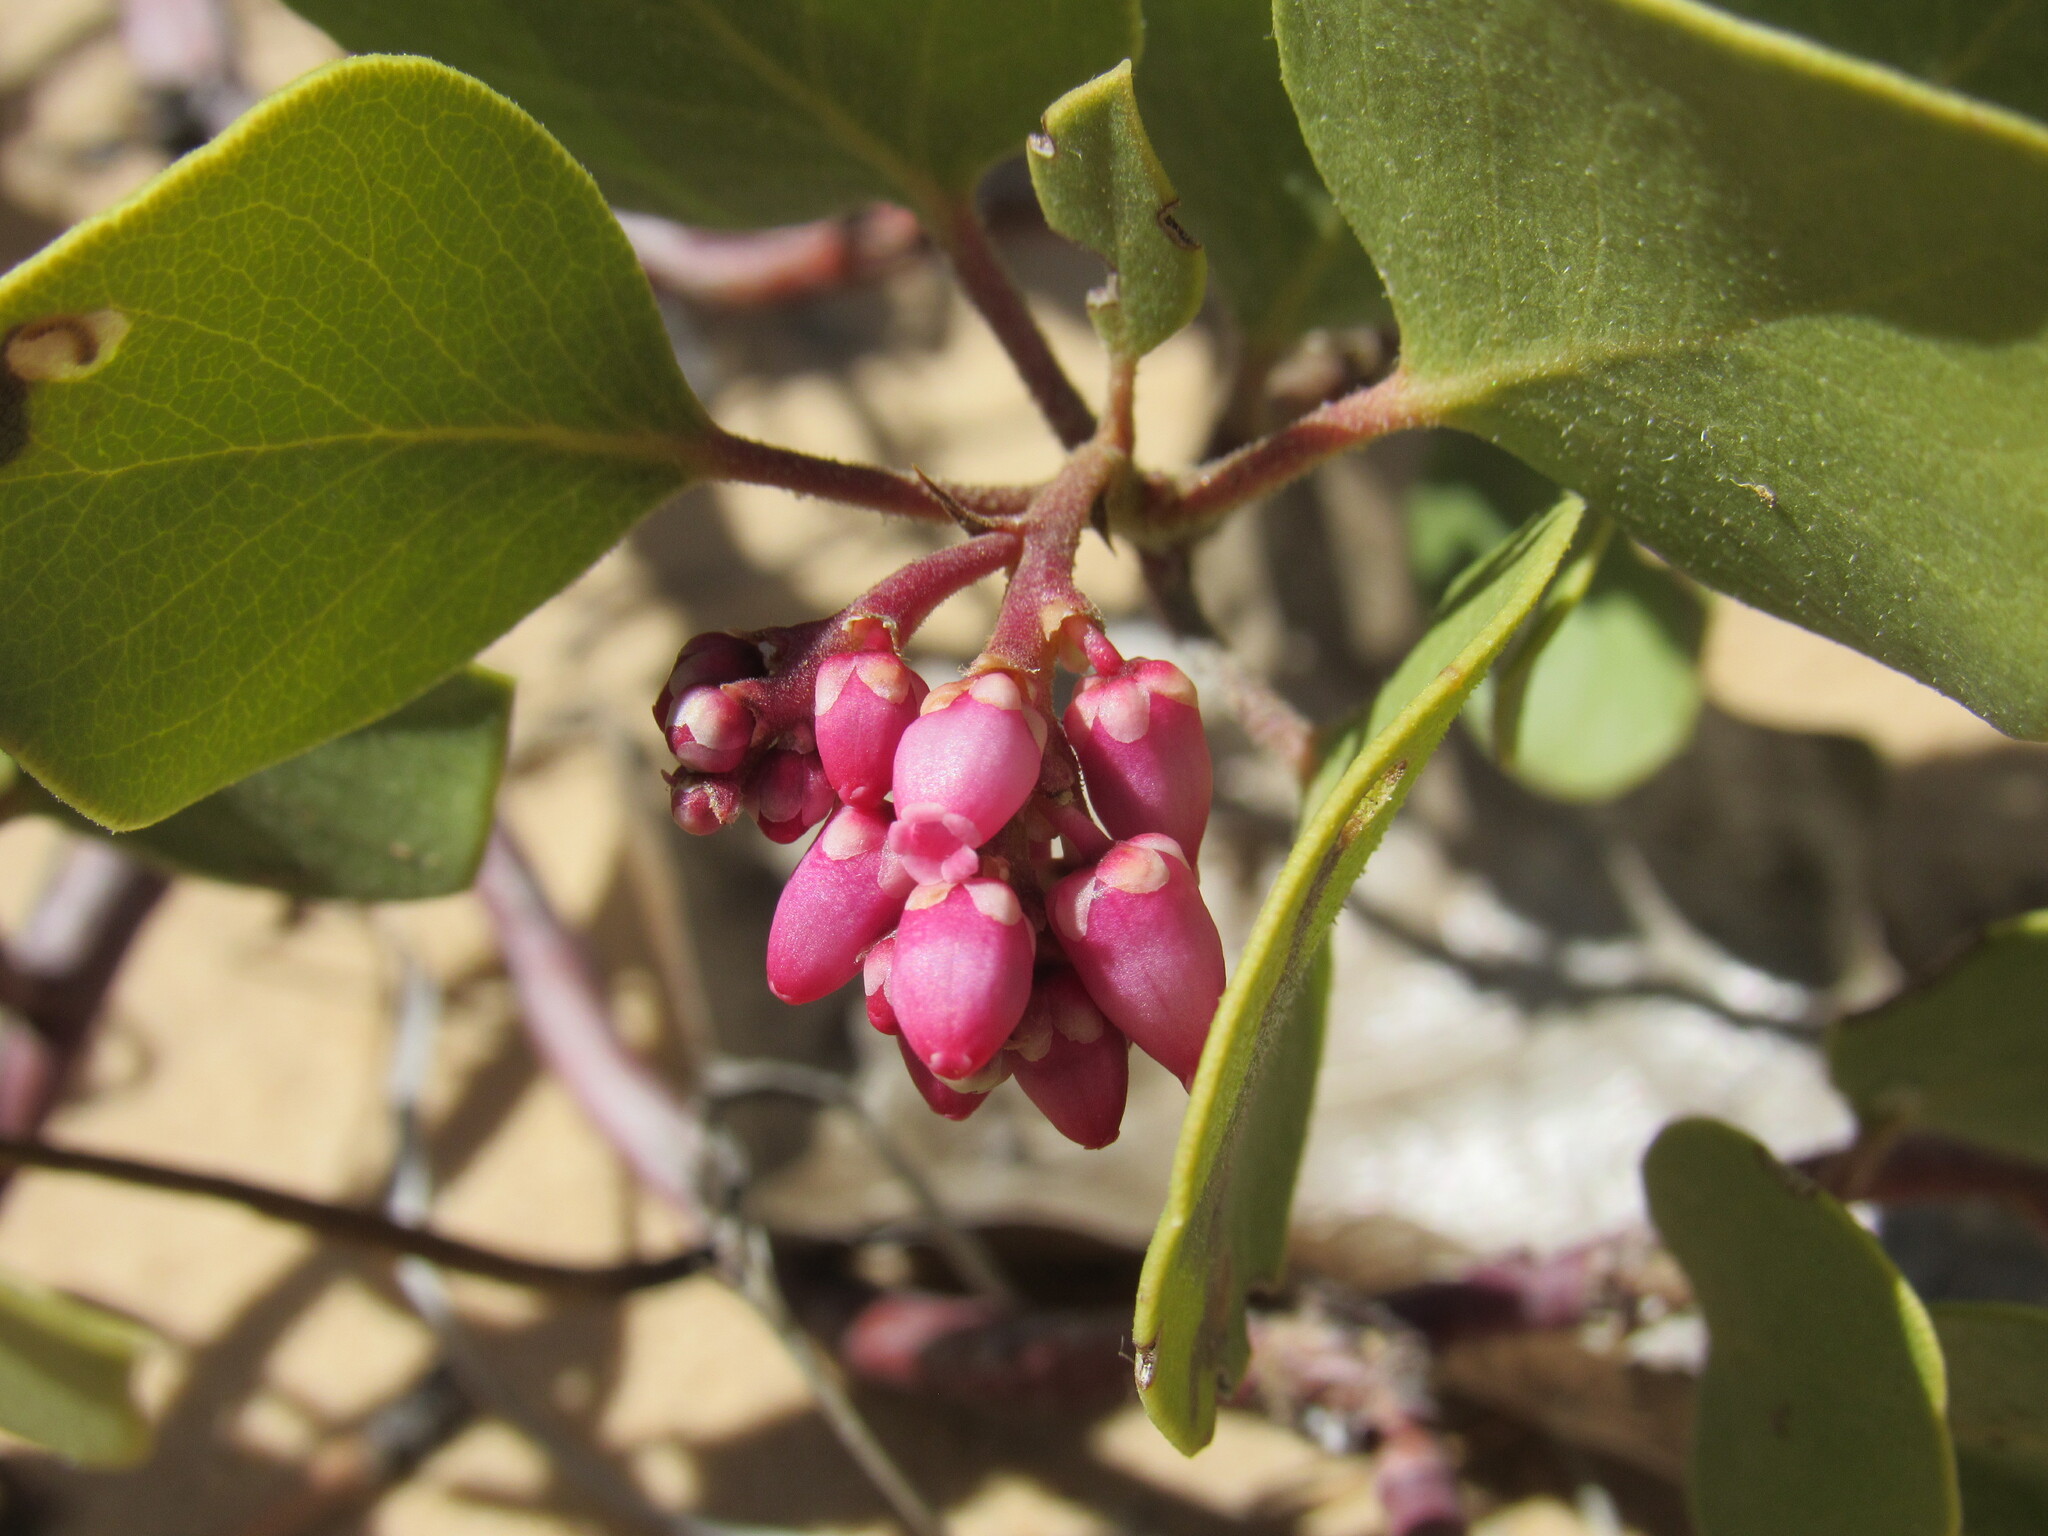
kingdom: Plantae
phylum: Tracheophyta
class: Magnoliopsida
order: Ericales
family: Ericaceae
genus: Arctostaphylos
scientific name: Arctostaphylos patula
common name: Green-leaf manzanita
